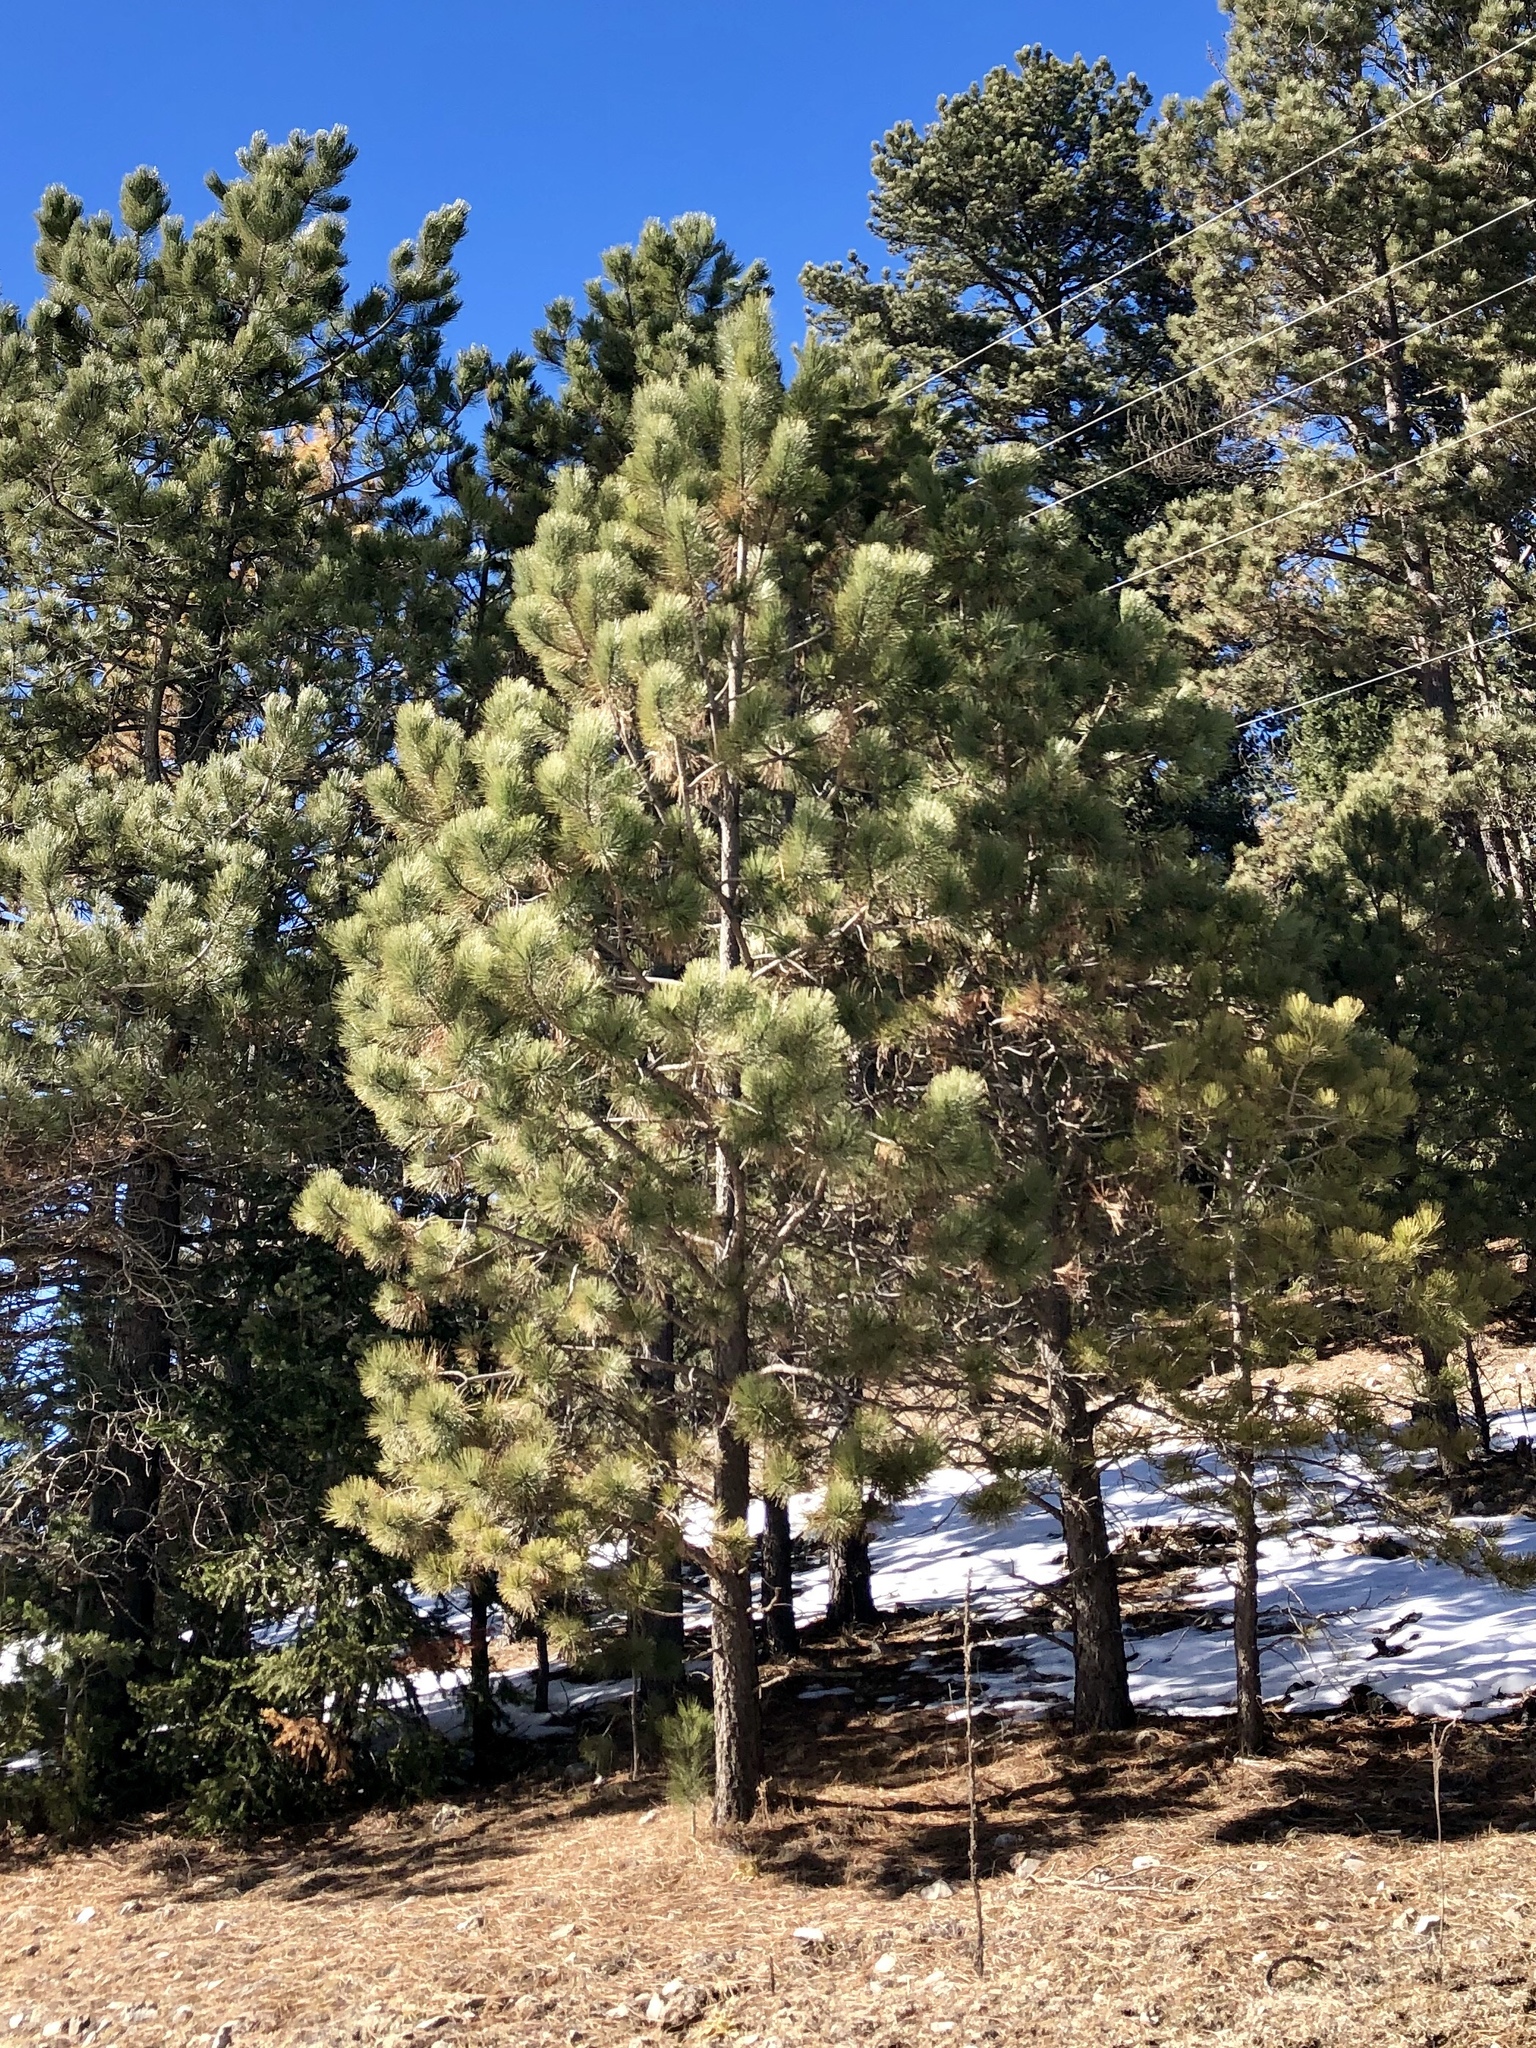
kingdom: Plantae
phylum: Tracheophyta
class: Pinopsida
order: Pinales
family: Pinaceae
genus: Pinus
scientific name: Pinus ponderosa
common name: Western yellow-pine
